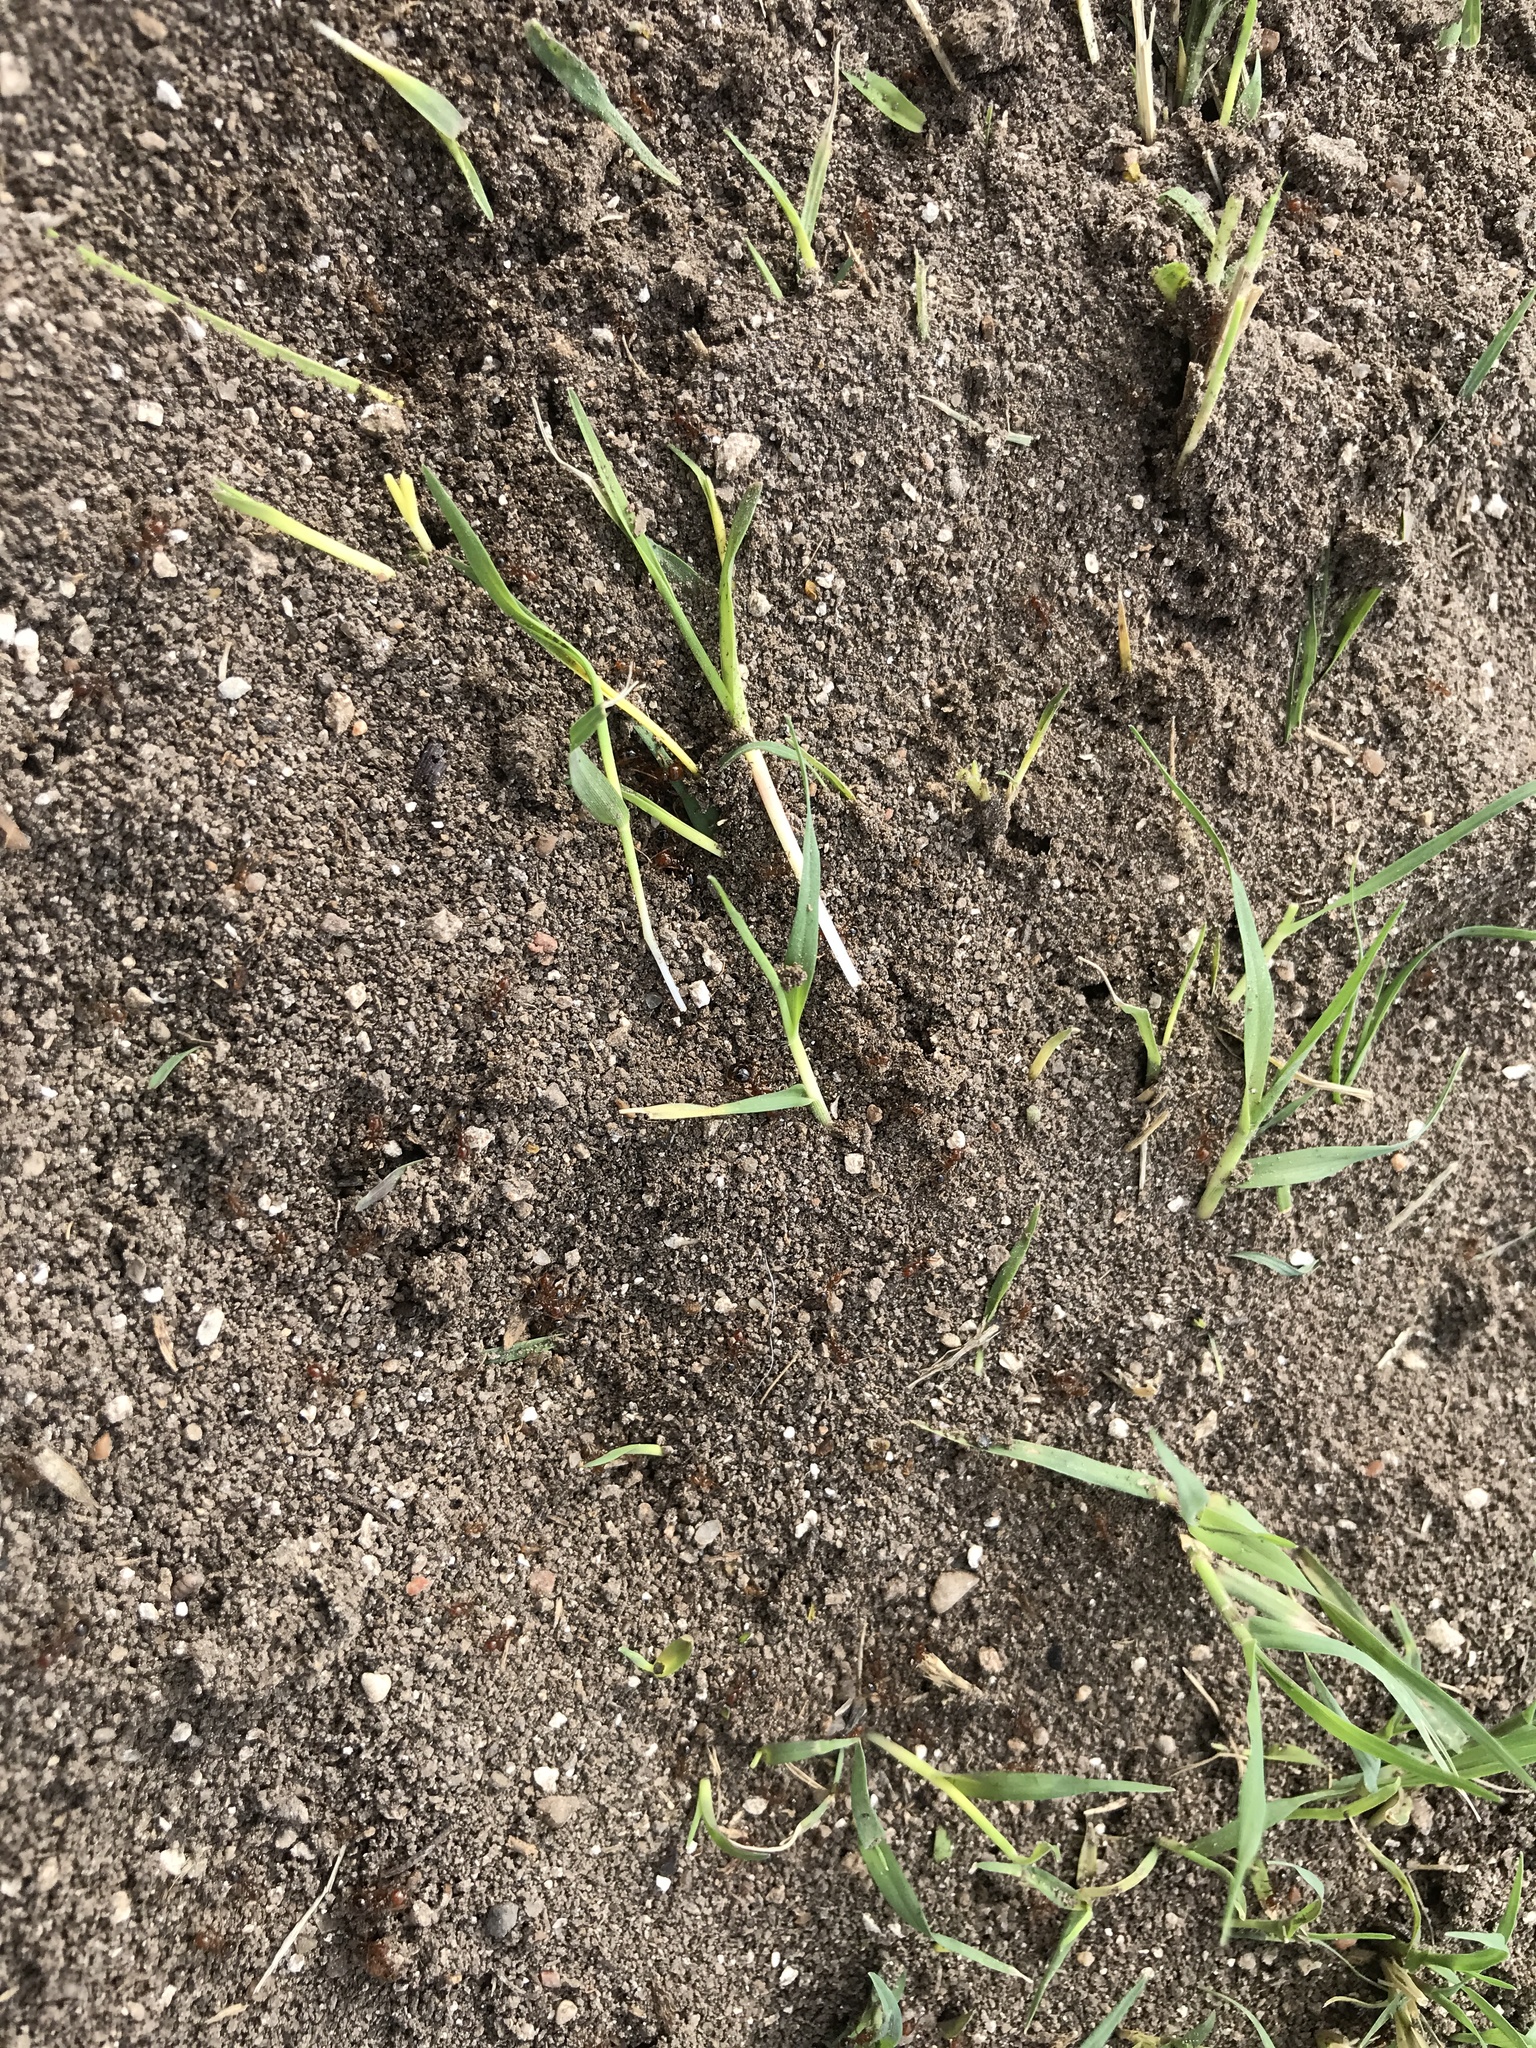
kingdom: Animalia
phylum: Arthropoda
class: Insecta
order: Hymenoptera
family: Formicidae
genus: Solenopsis
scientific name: Solenopsis invicta
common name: Red imported fire ant
